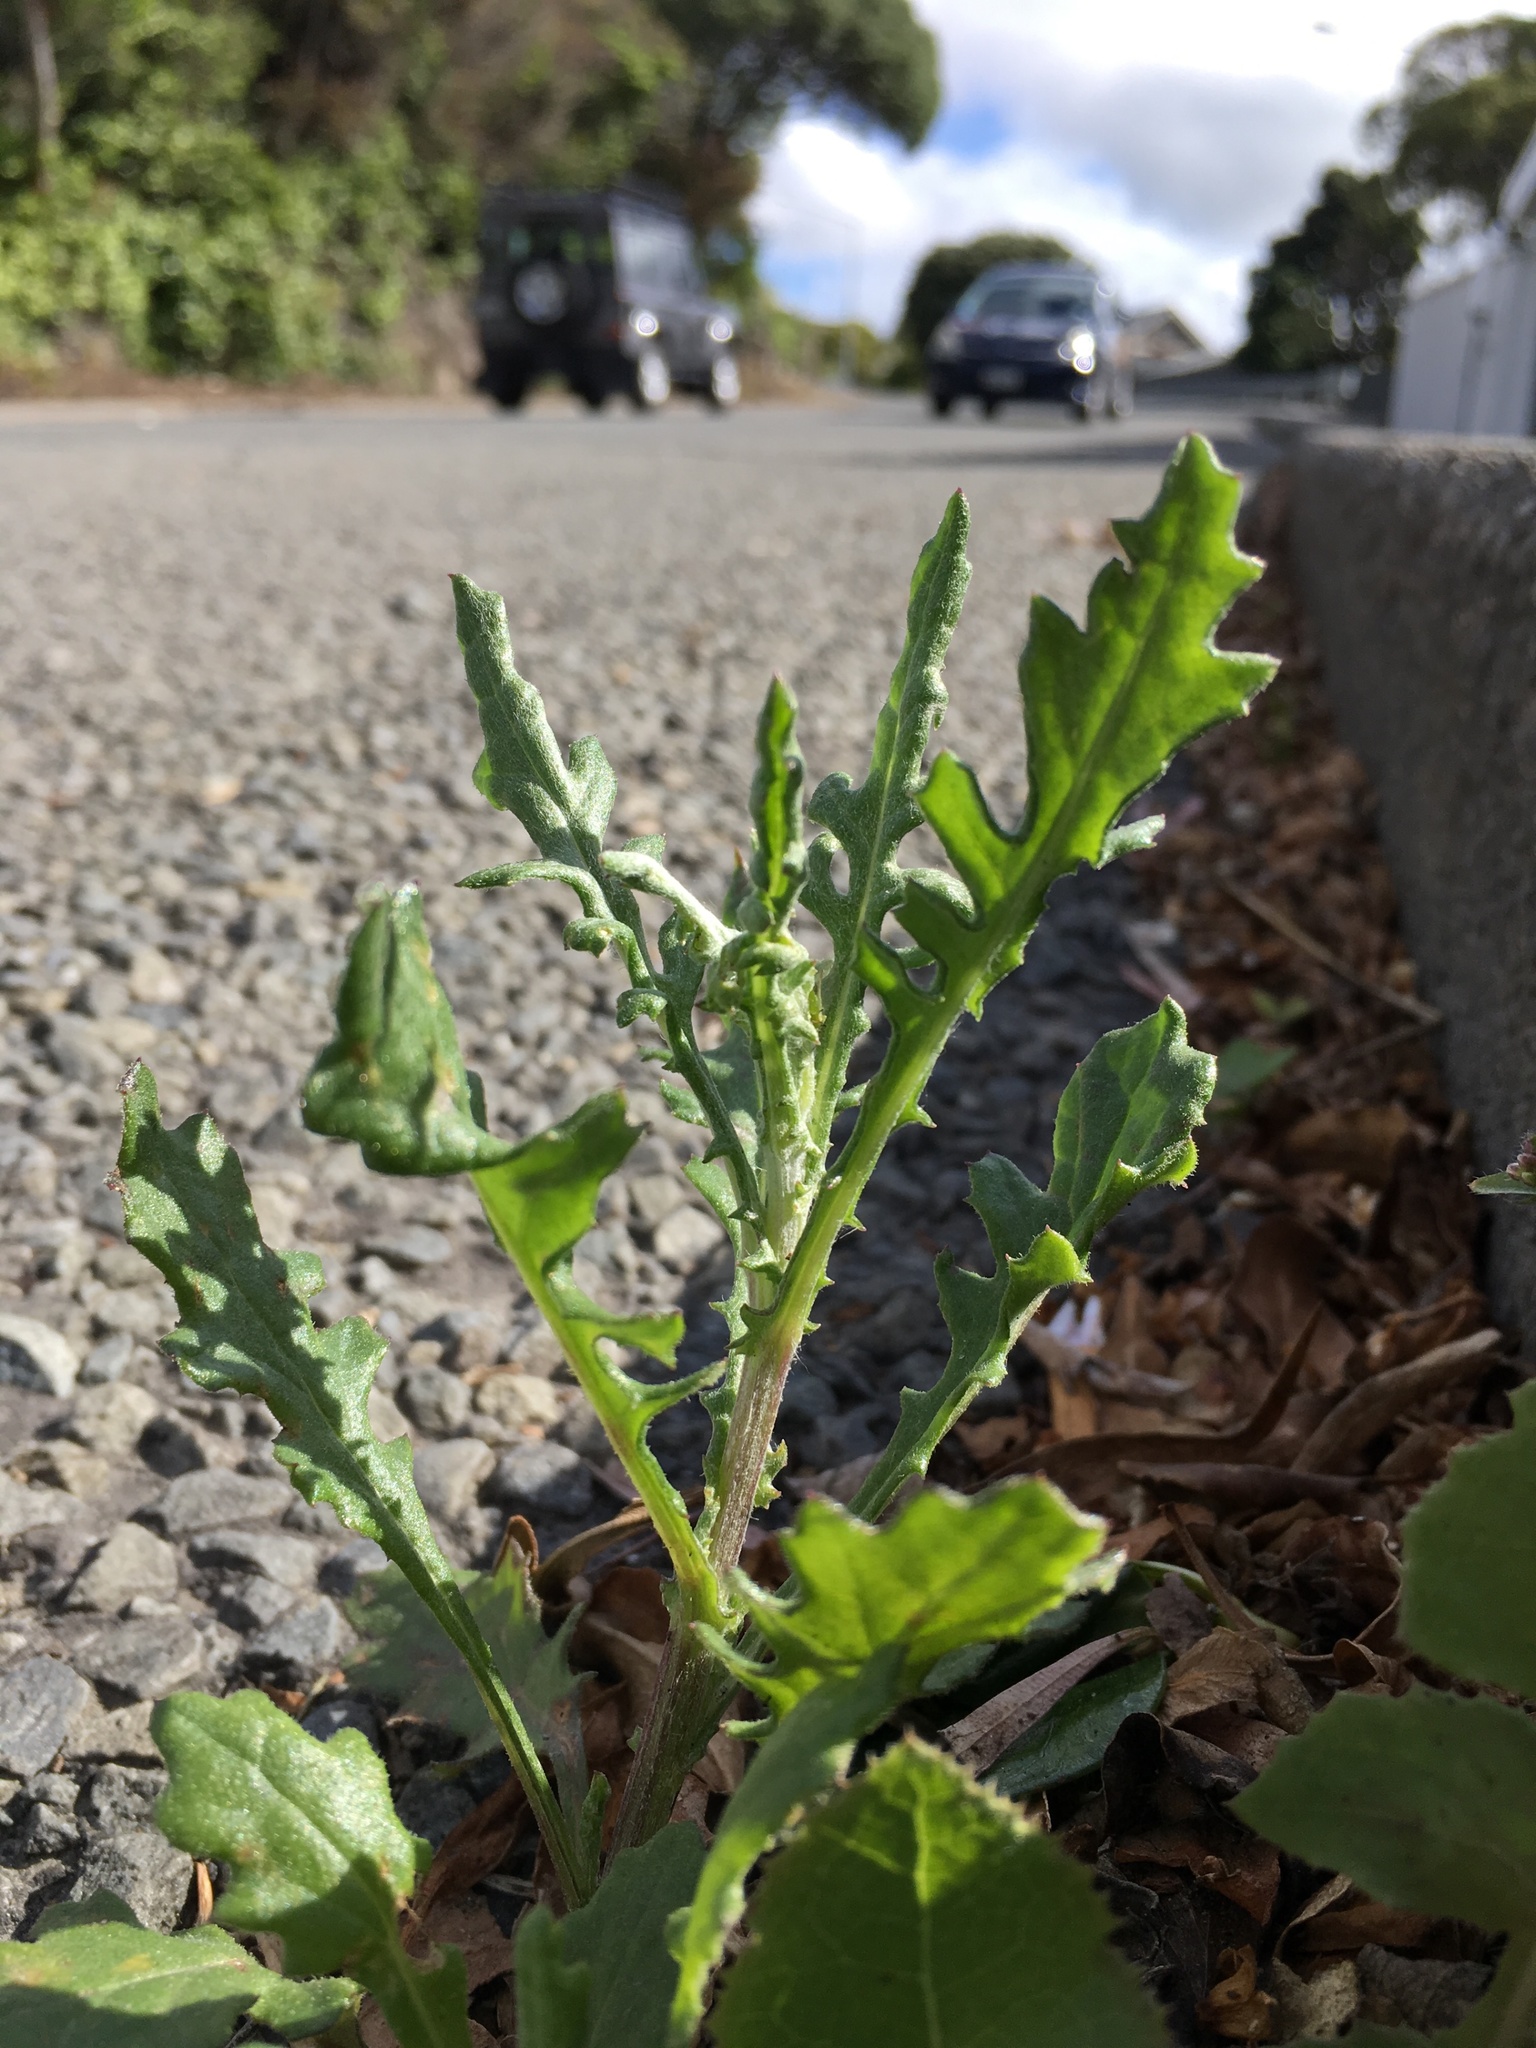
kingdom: Plantae
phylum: Tracheophyta
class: Magnoliopsida
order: Asterales
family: Asteraceae
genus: Senecio
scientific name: Senecio glomeratus
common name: Cutleaf burnweed
